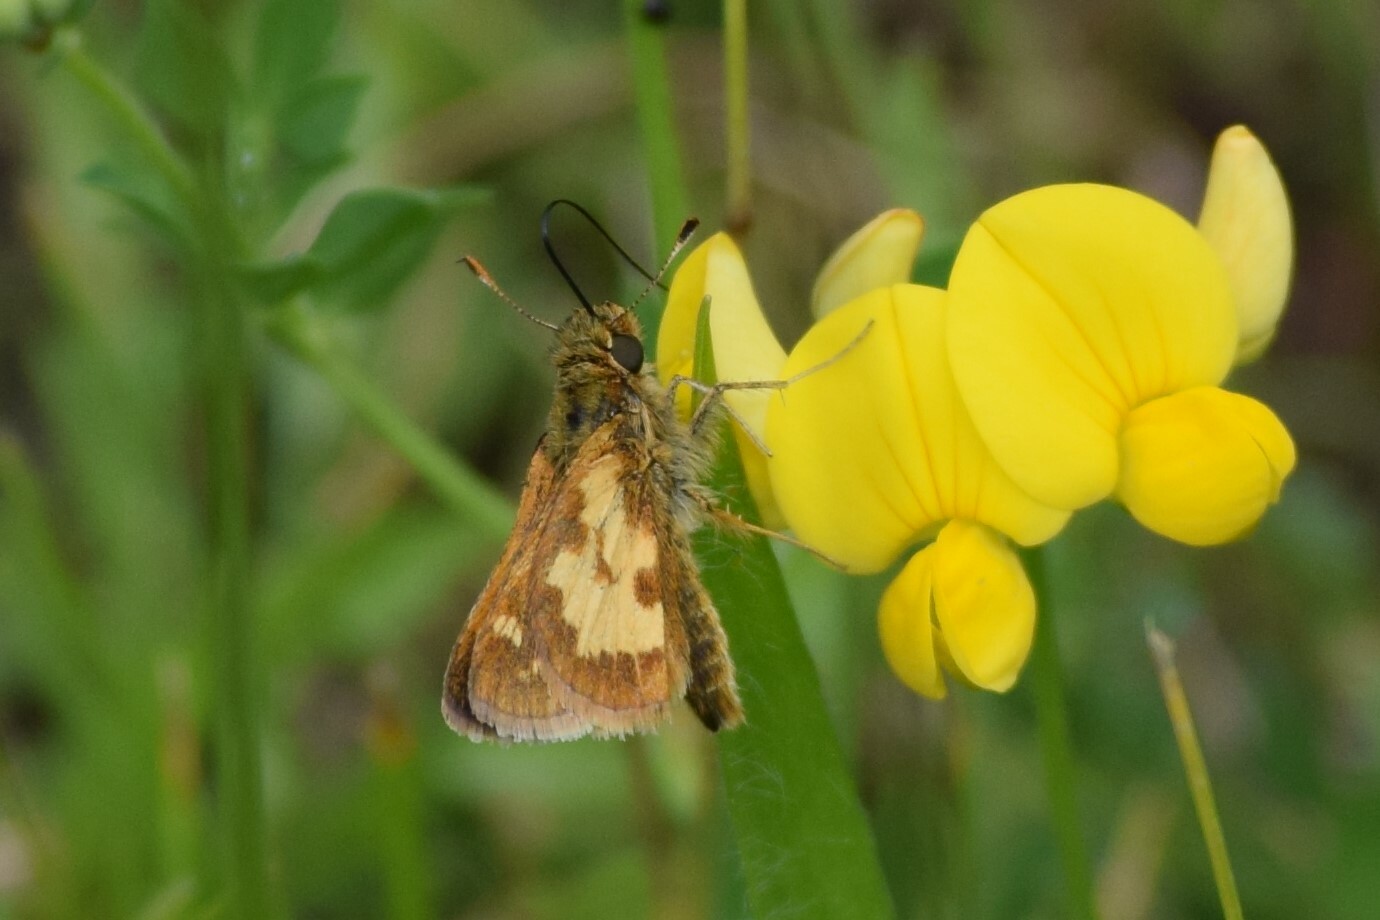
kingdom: Animalia
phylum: Arthropoda
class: Insecta
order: Lepidoptera
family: Hesperiidae
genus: Polites
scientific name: Polites coras
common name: Peck's skipper
